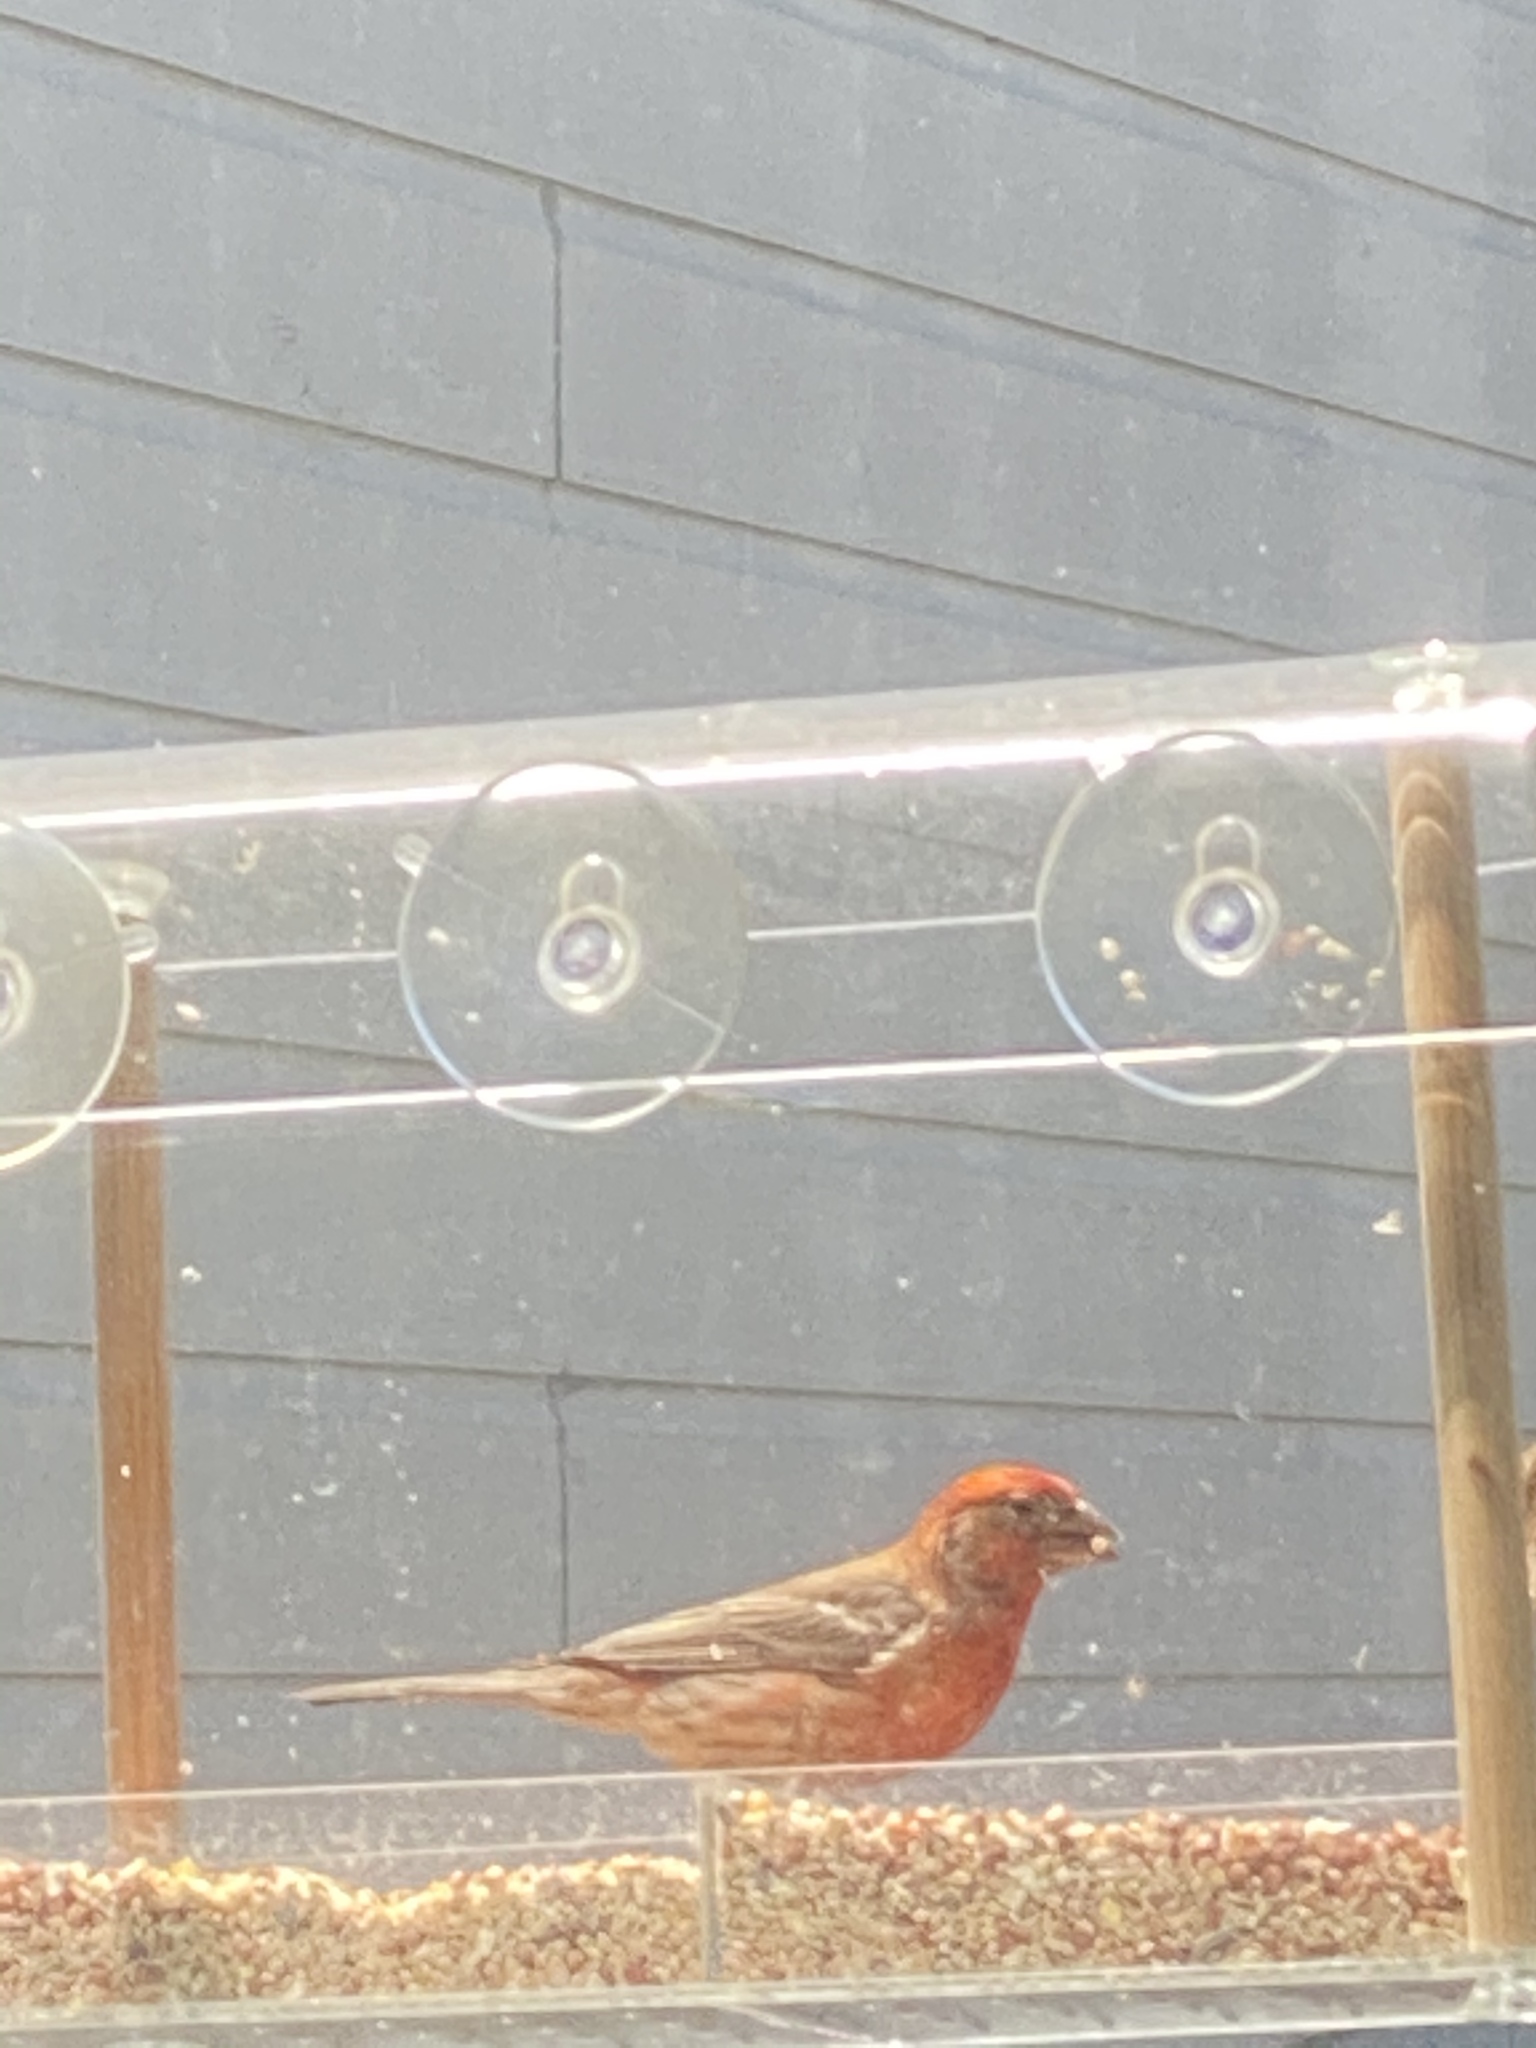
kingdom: Animalia
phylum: Chordata
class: Aves
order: Passeriformes
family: Fringillidae
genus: Haemorhous
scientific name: Haemorhous mexicanus
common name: House finch
